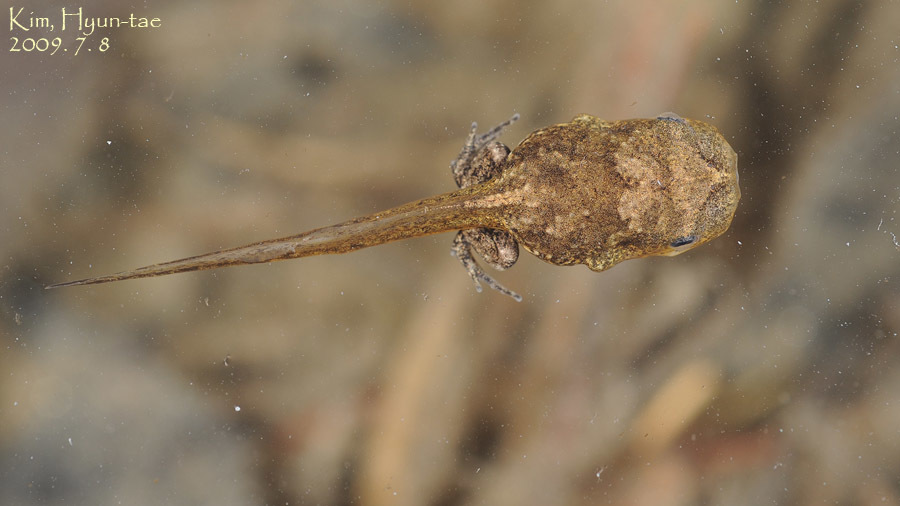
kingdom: Animalia
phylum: Chordata
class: Amphibia
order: Anura
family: Microhylidae
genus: Kaloula
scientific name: Kaloula borealis
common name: Boreal digging frog
